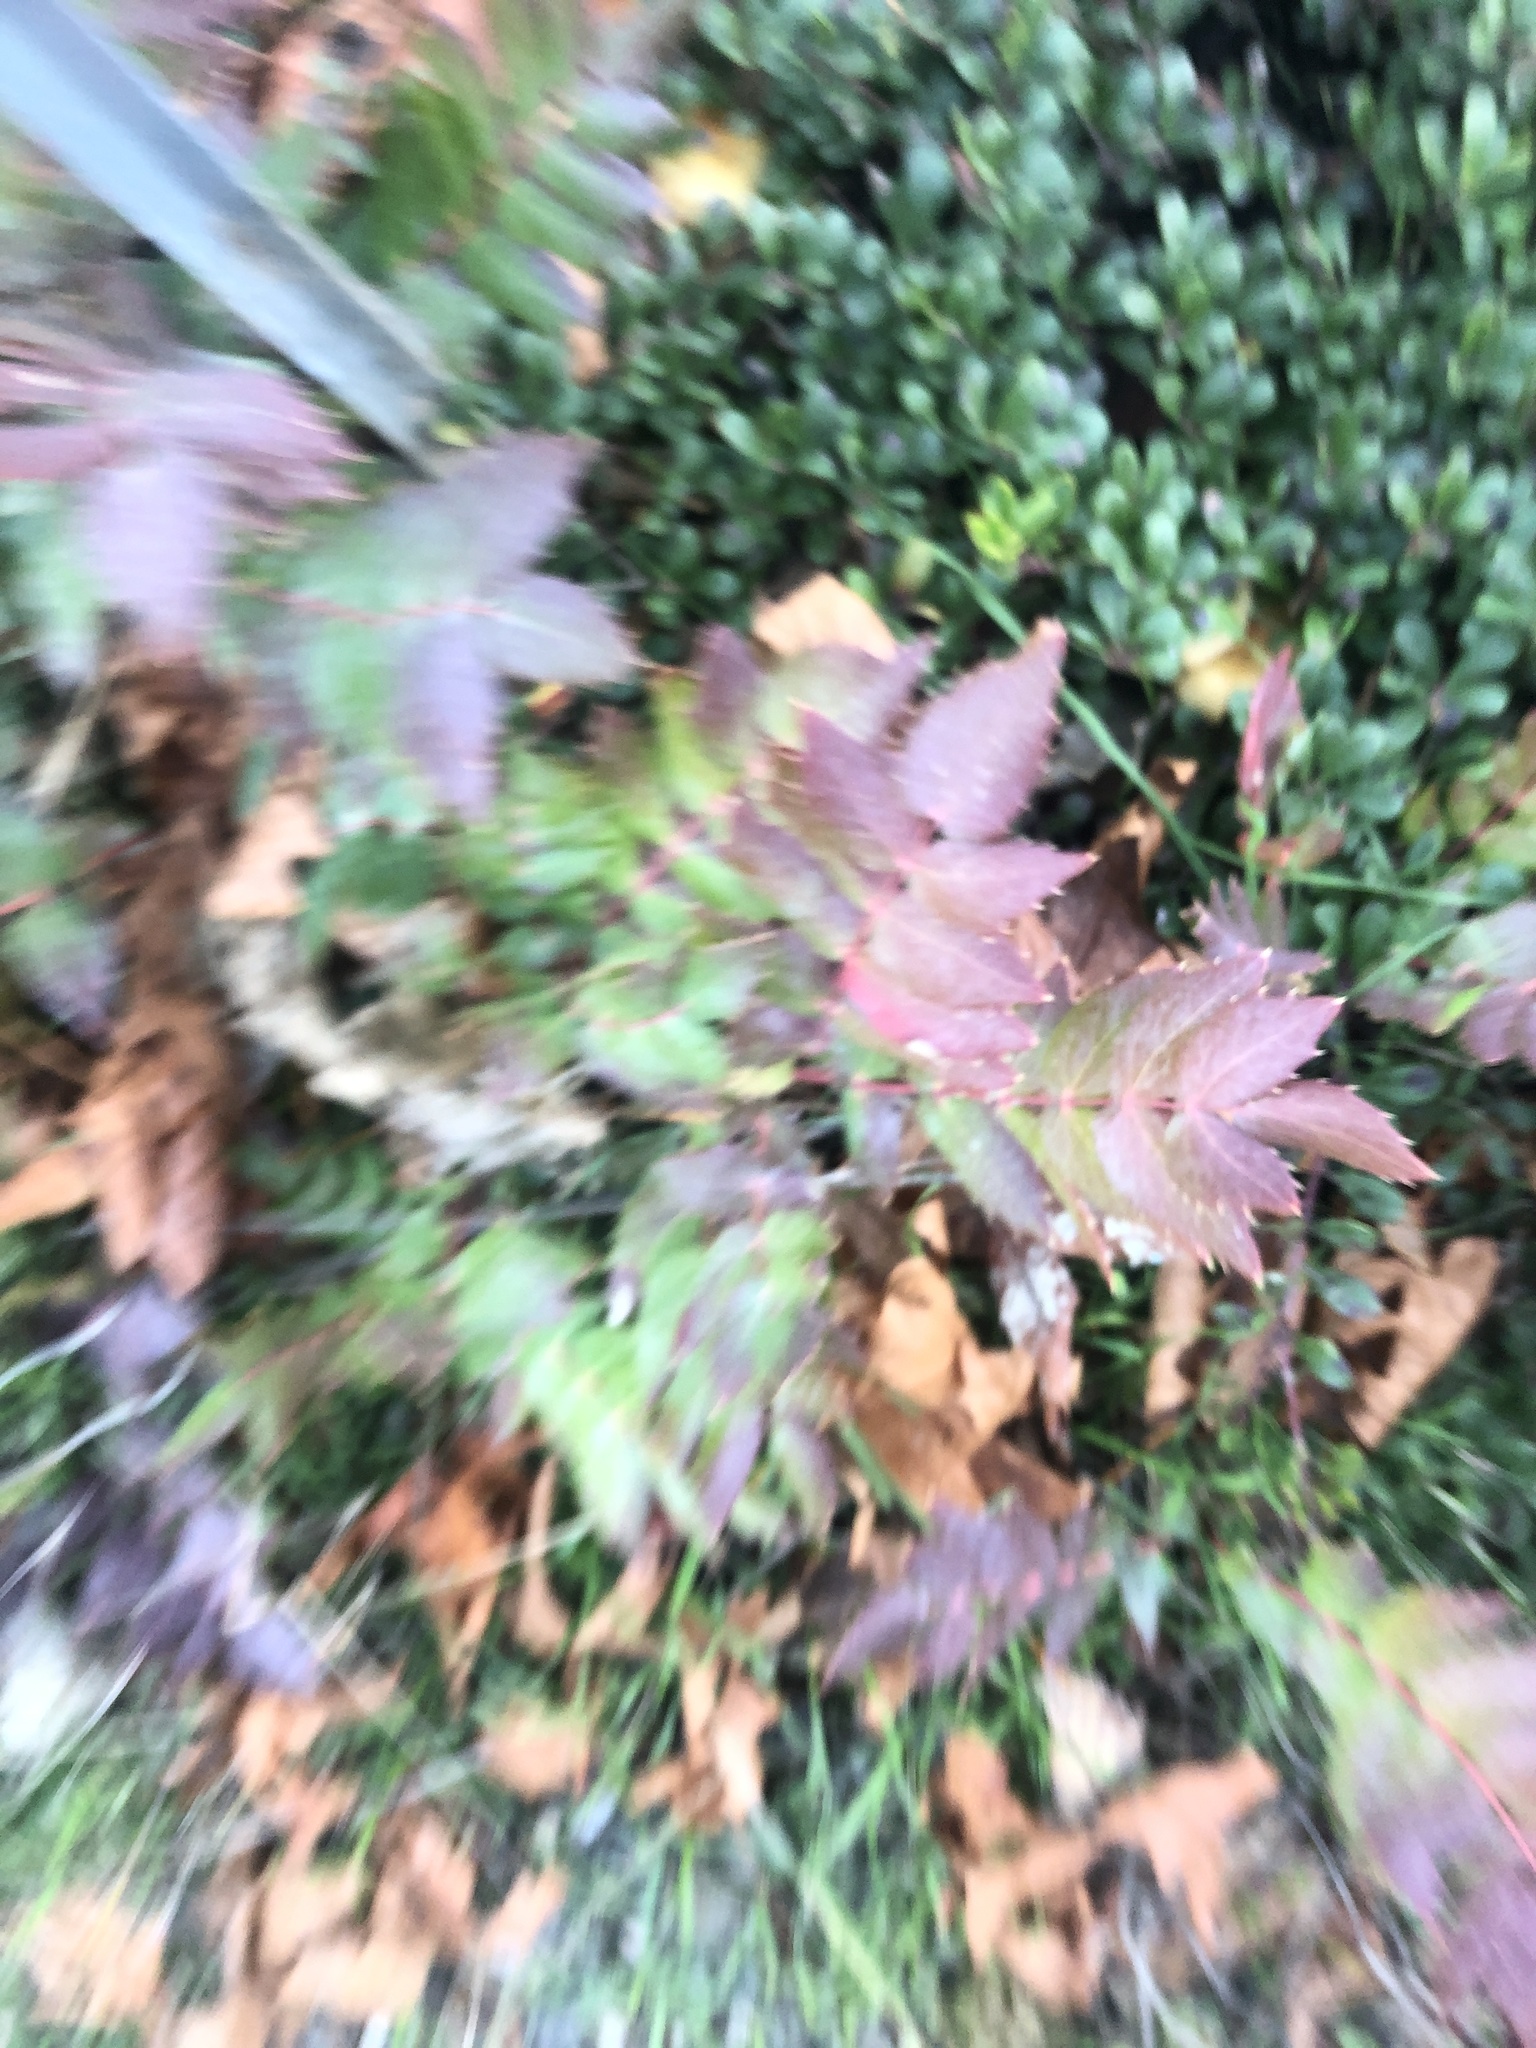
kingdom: Plantae
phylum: Tracheophyta
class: Magnoliopsida
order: Ranunculales
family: Berberidaceae
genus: Mahonia
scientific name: Mahonia nervosa
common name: Cascade oregon-grape
